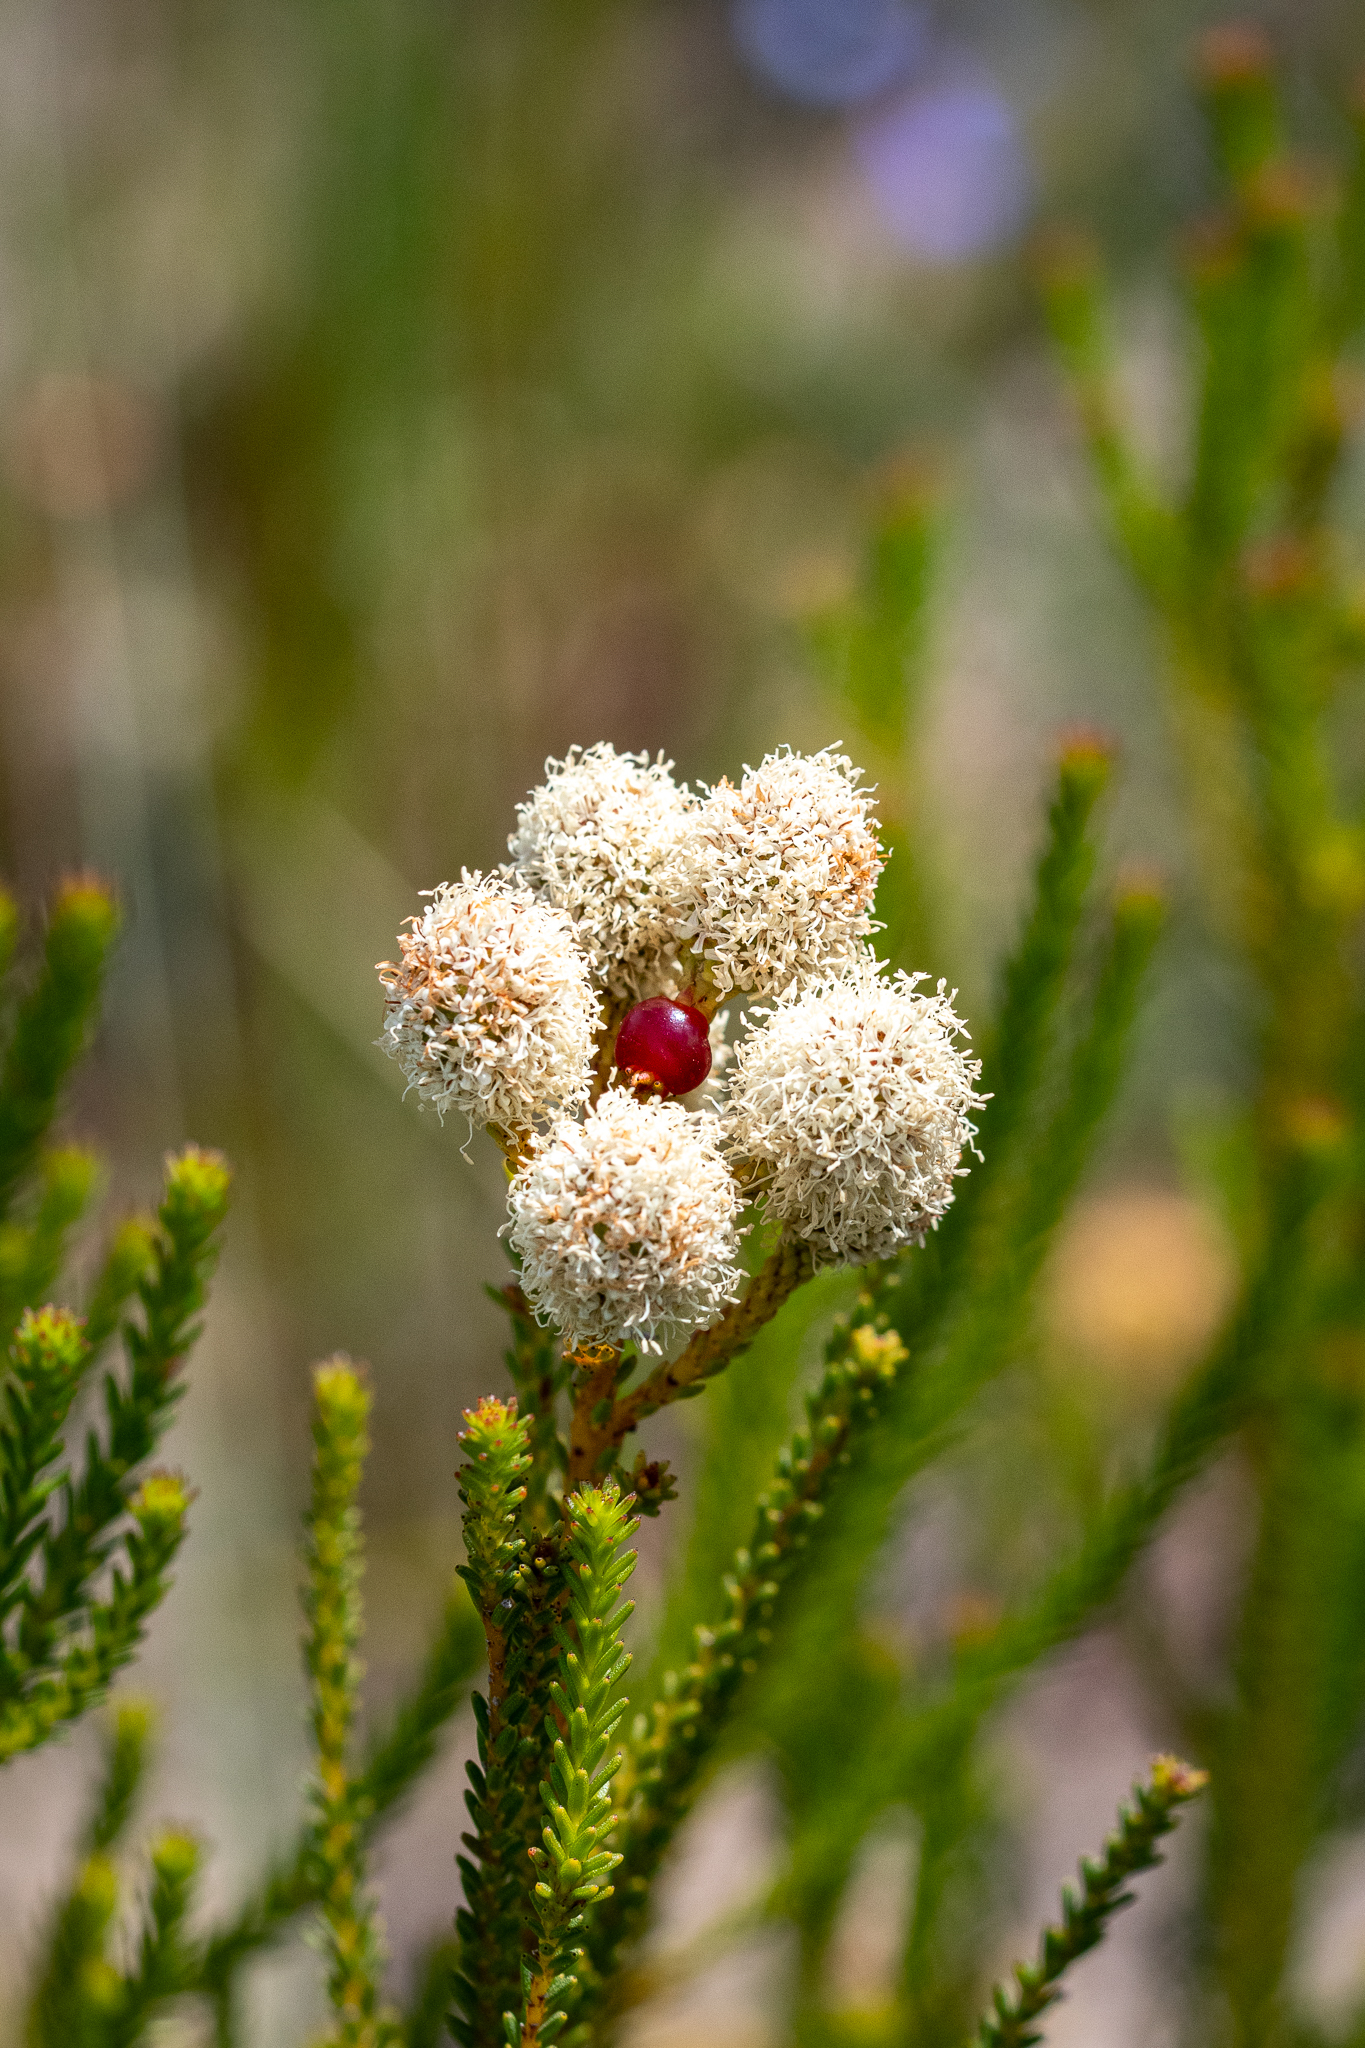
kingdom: Plantae
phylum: Tracheophyta
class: Magnoliopsida
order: Bruniales
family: Bruniaceae
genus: Berzelia
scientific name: Berzelia abrotanoides
